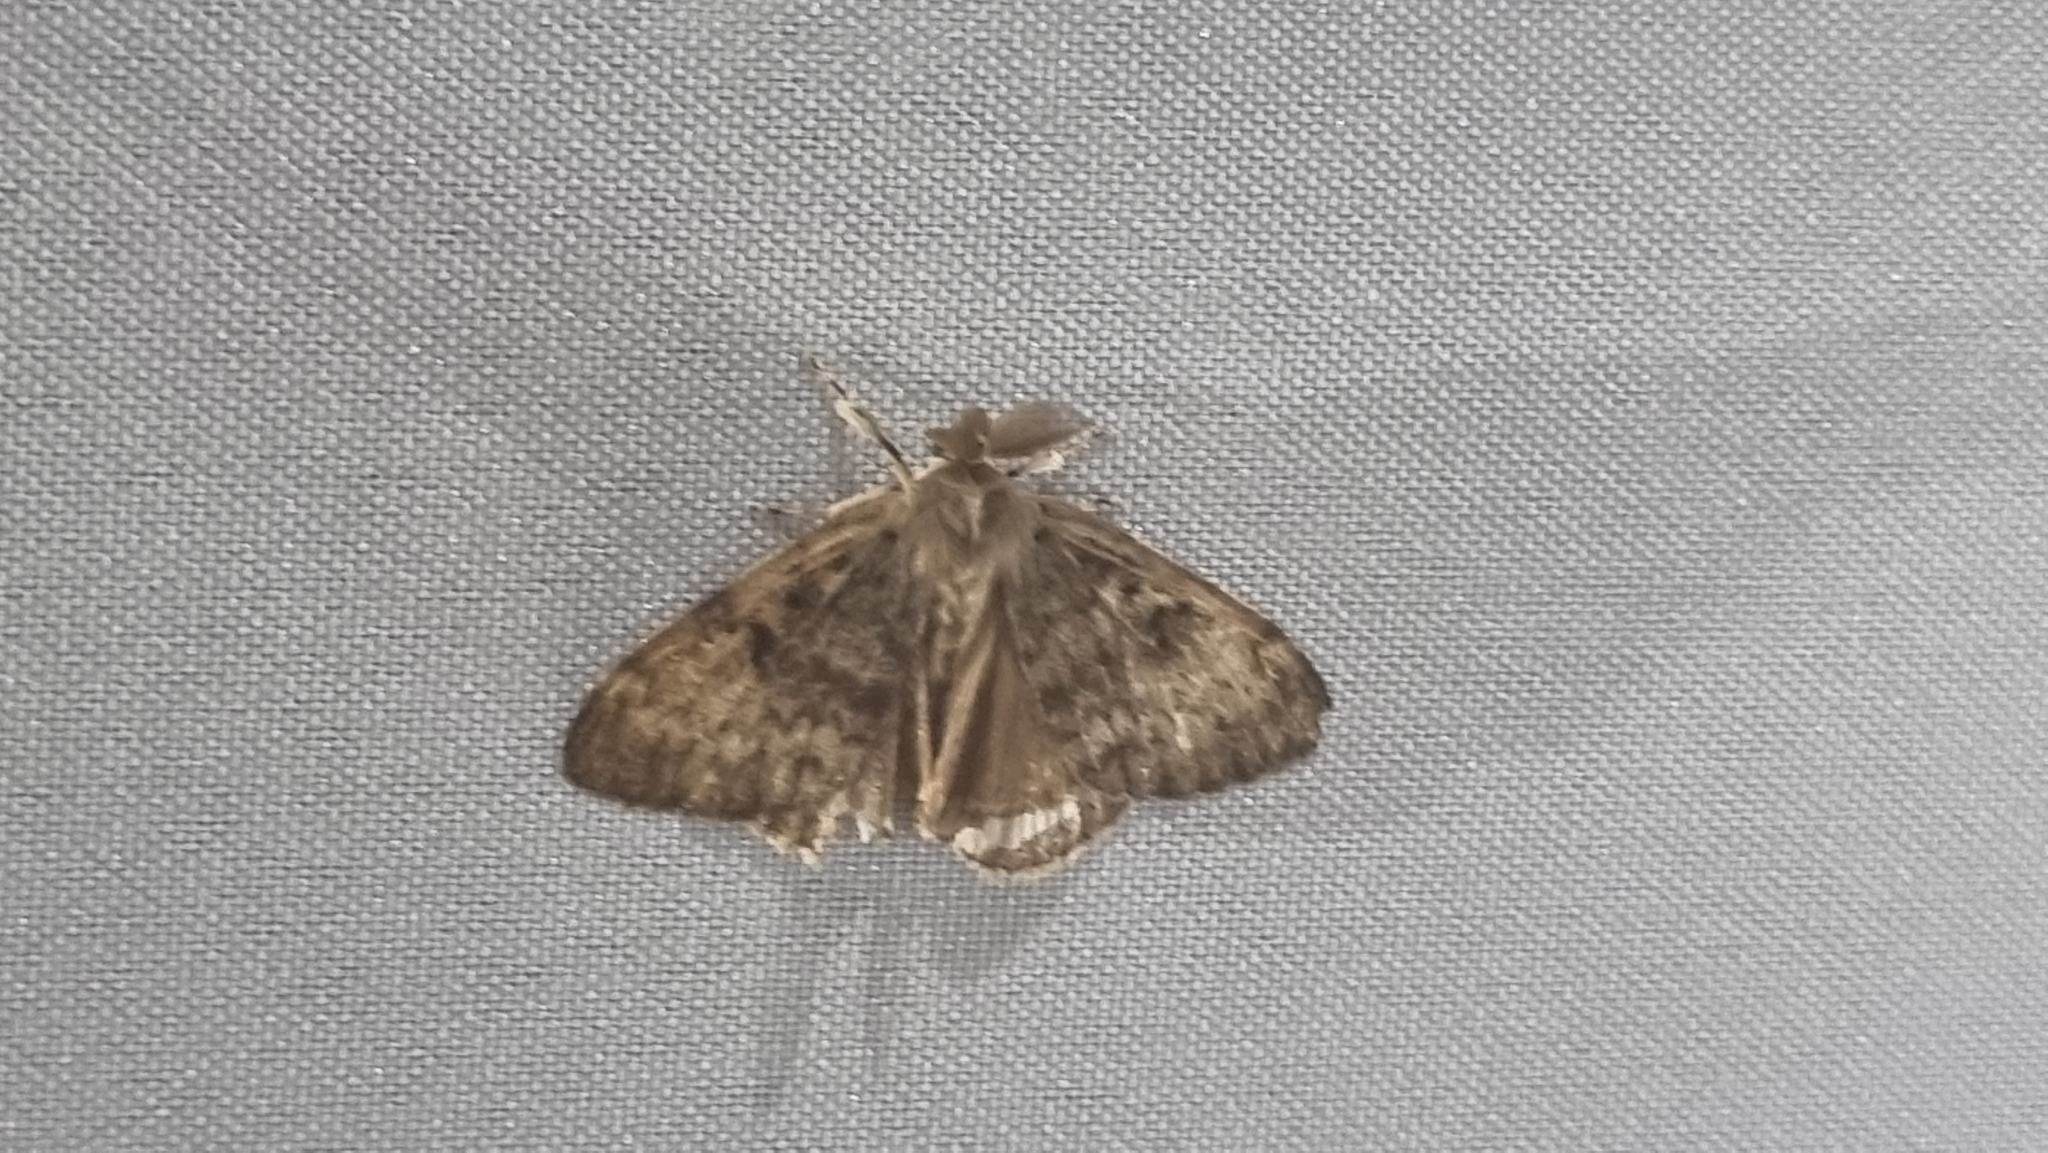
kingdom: Animalia
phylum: Arthropoda
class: Insecta
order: Lepidoptera
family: Erebidae
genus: Lymantria
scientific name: Lymantria dispar
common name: Gypsy moth
